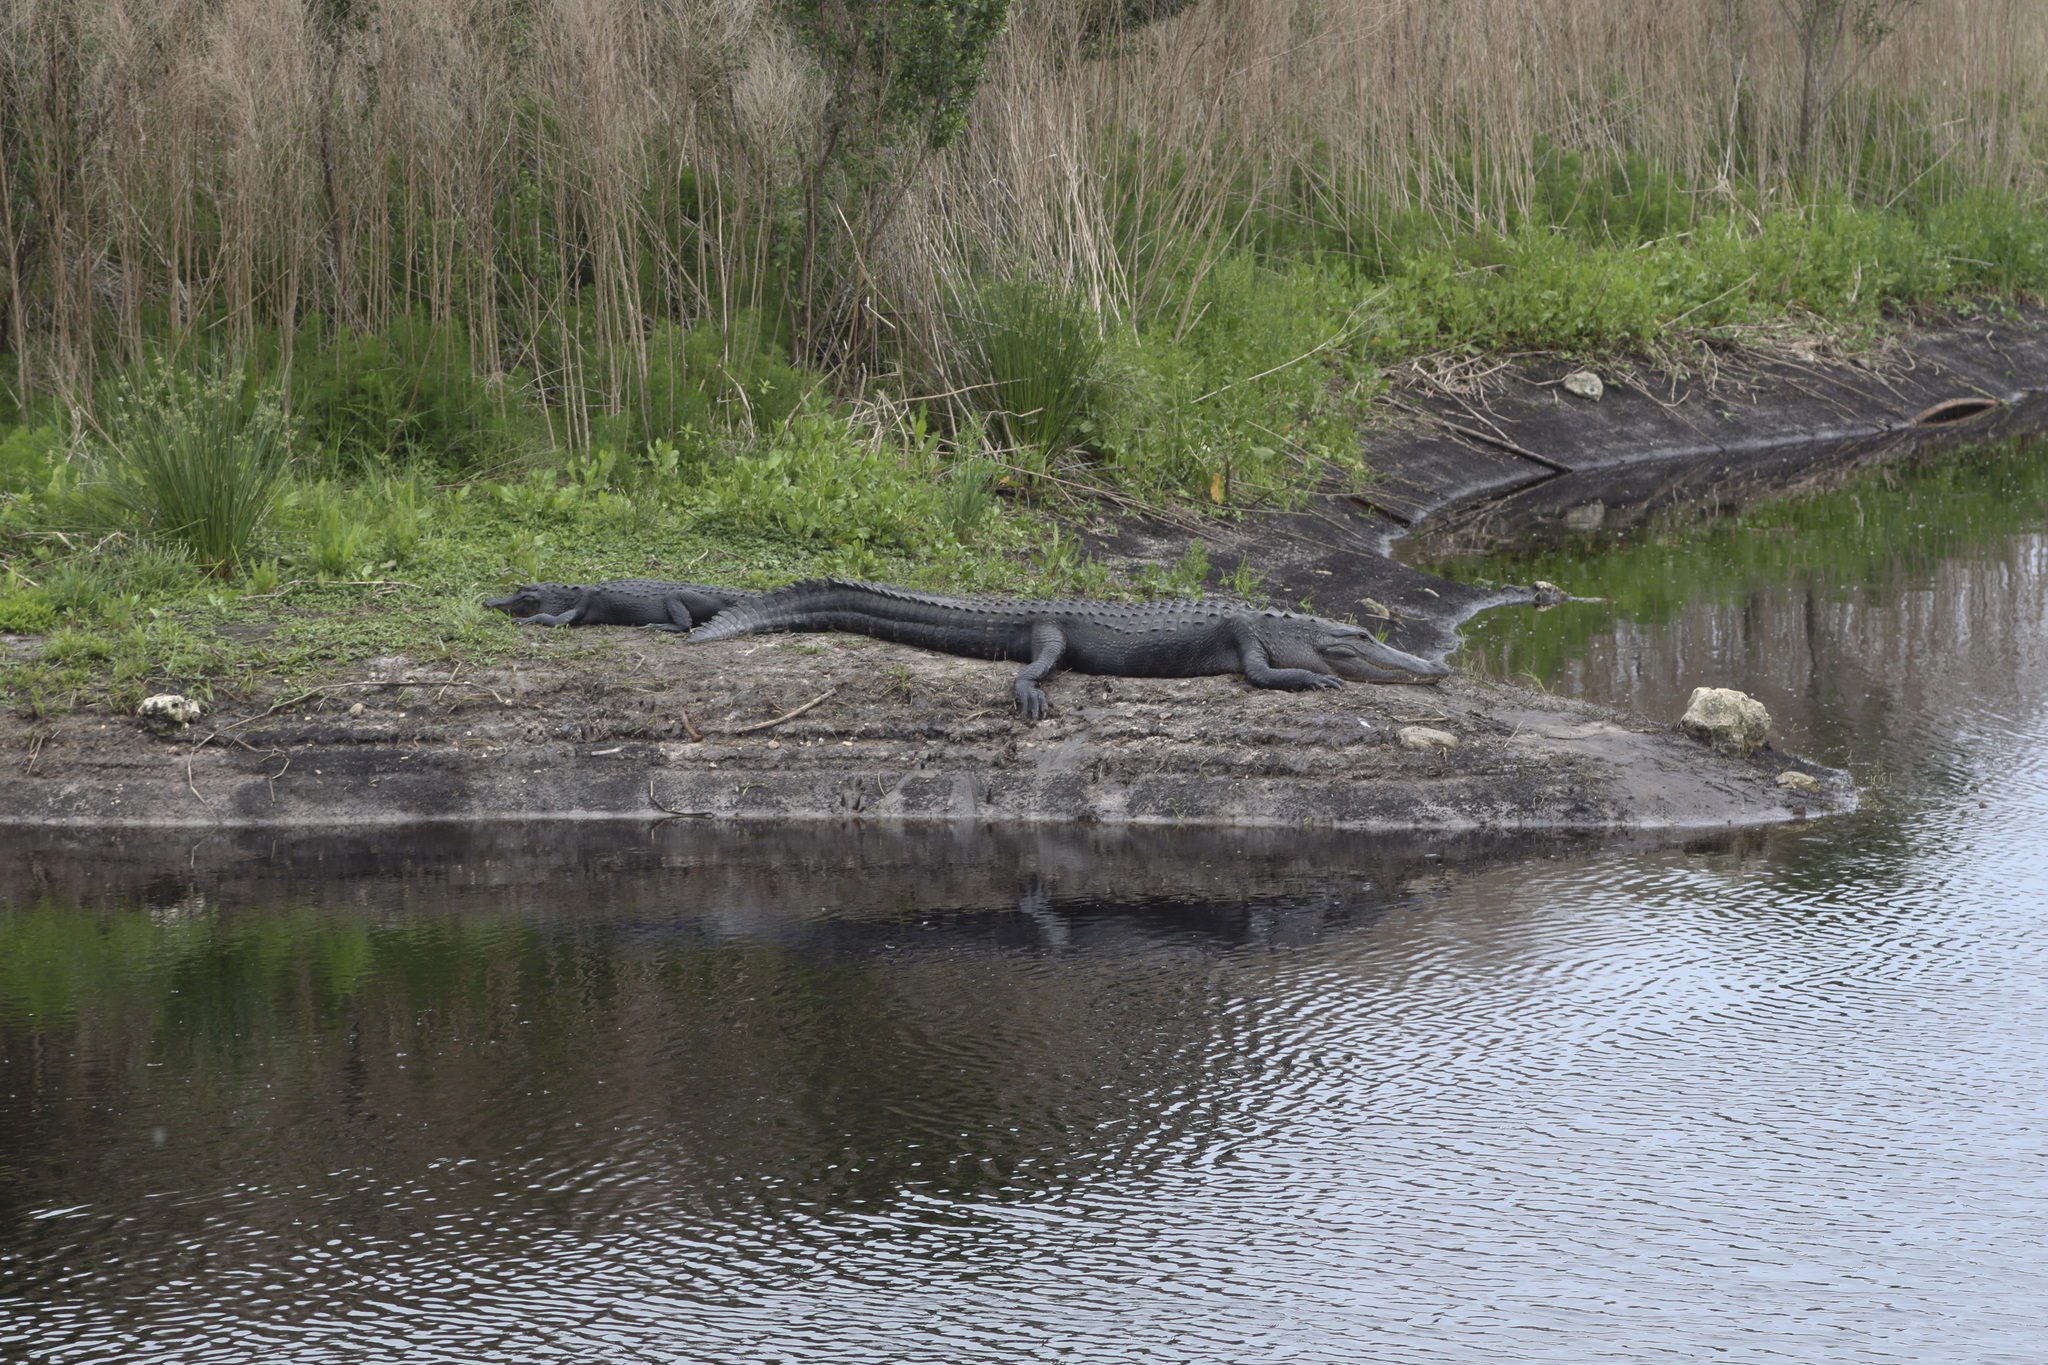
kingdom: Animalia
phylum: Chordata
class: Crocodylia
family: Alligatoridae
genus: Alligator
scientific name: Alligator mississippiensis
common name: American alligator
